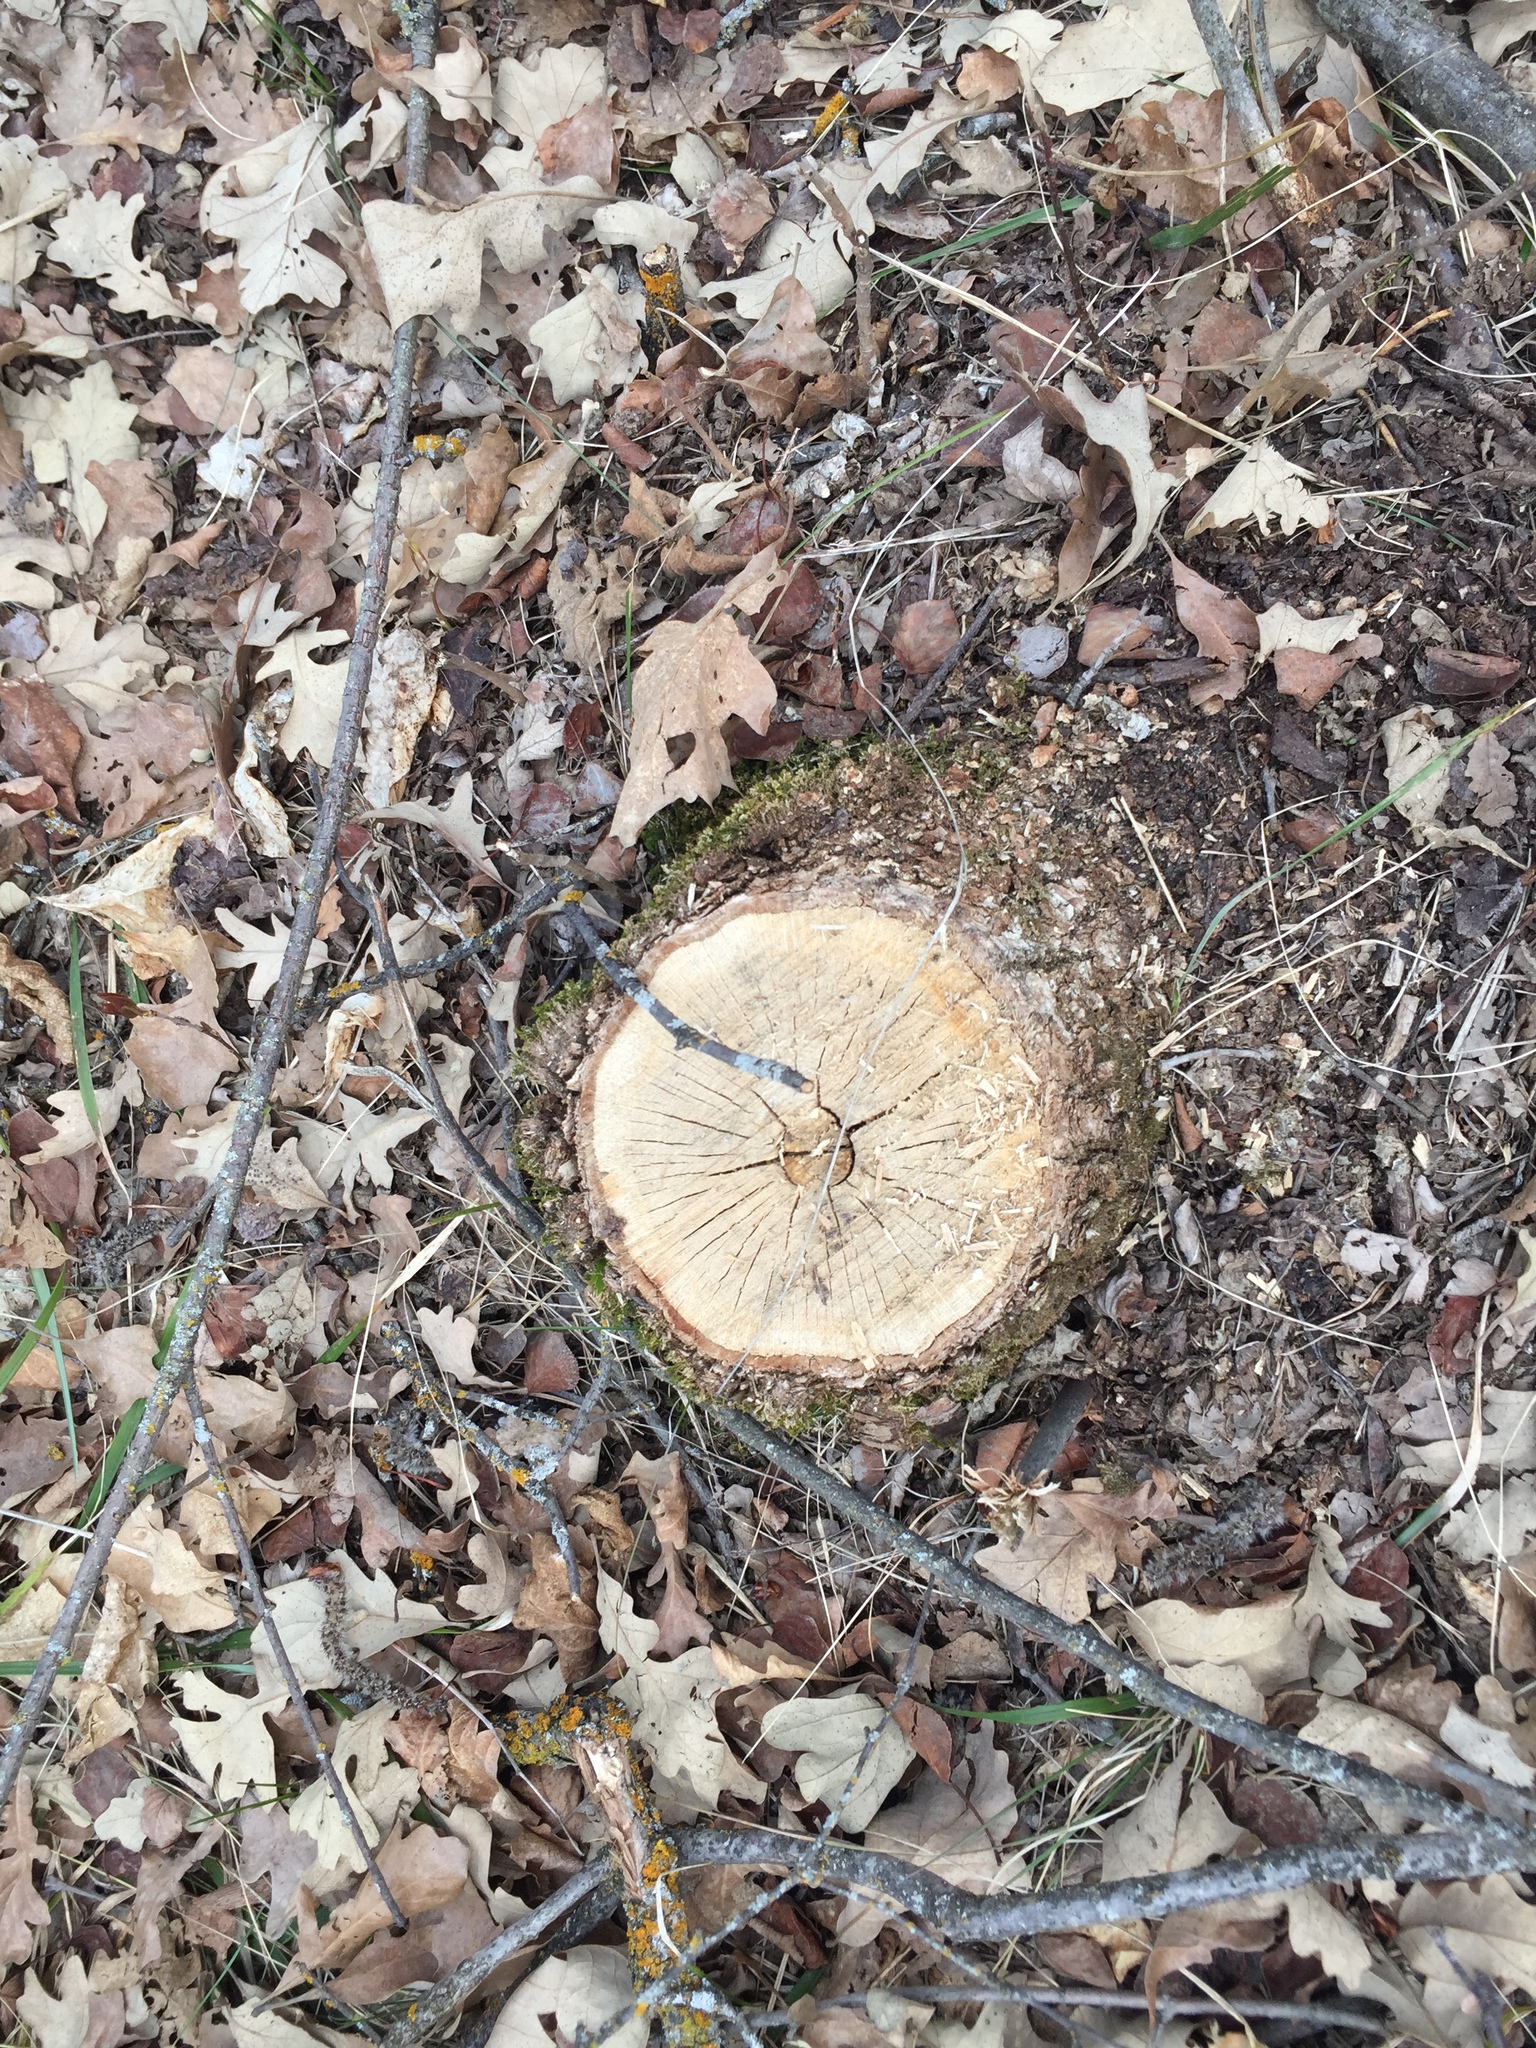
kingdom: Plantae
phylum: Tracheophyta
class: Magnoliopsida
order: Fagales
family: Fagaceae
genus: Quercus
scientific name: Quercus macrocarpa
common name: Bur oak
